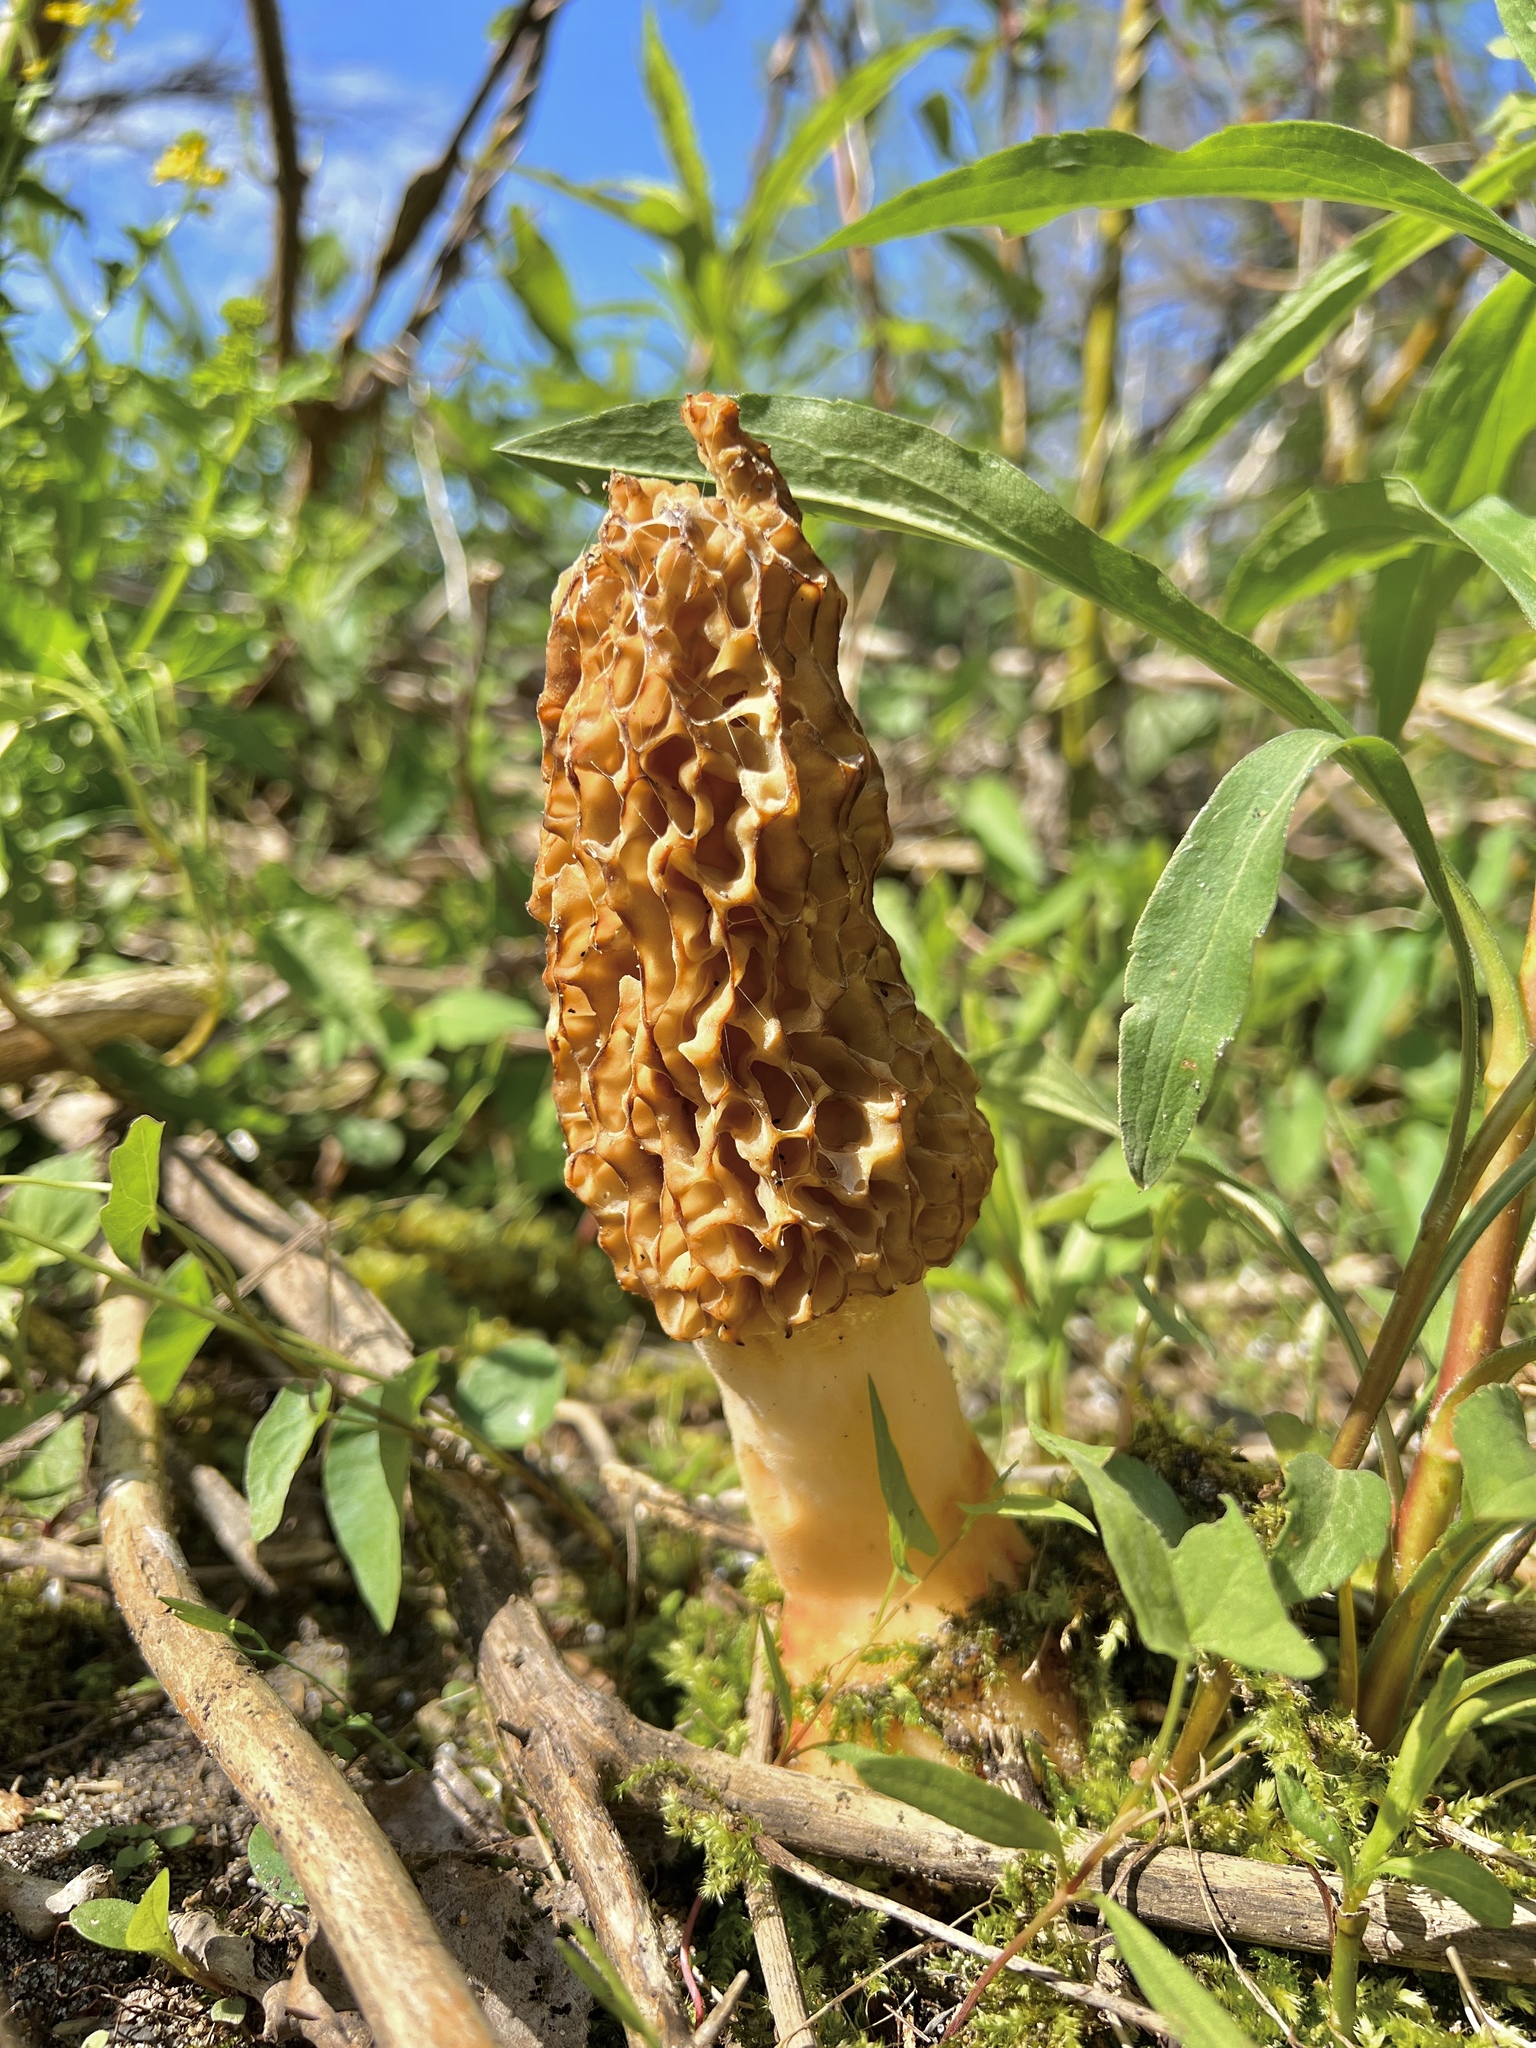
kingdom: Fungi
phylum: Ascomycota
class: Pezizomycetes
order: Pezizales
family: Morchellaceae
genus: Morchella
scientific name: Morchella americana
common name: White morel
